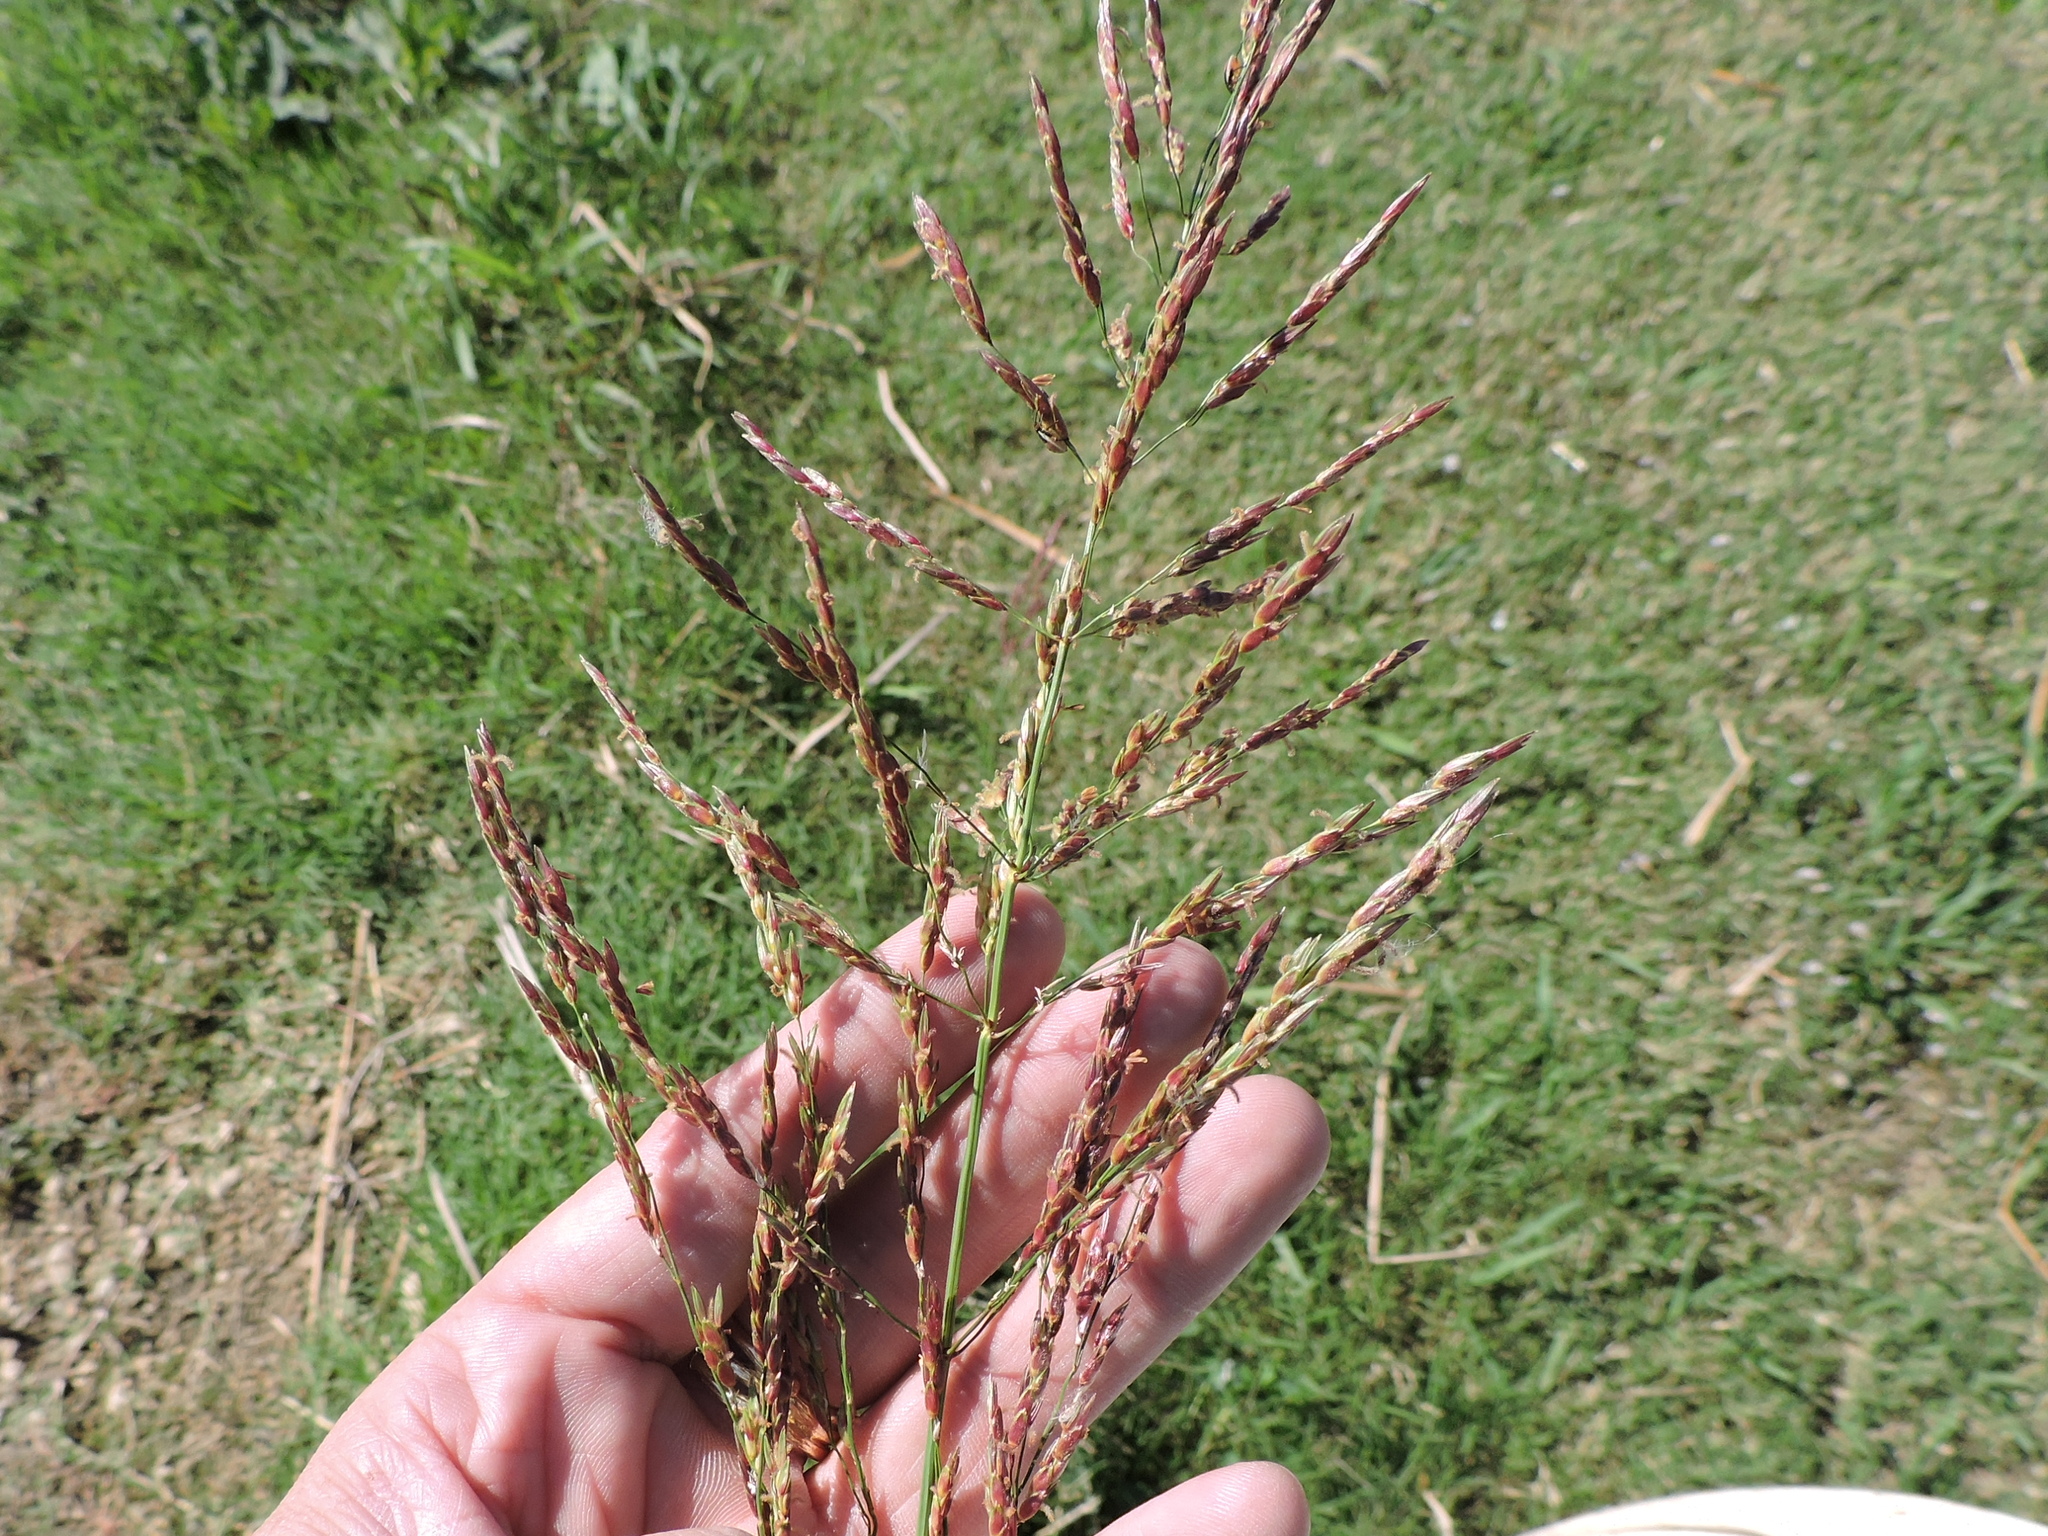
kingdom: Plantae
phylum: Tracheophyta
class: Liliopsida
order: Poales
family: Poaceae
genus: Sorghum
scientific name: Sorghum halepense
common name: Johnson-grass
